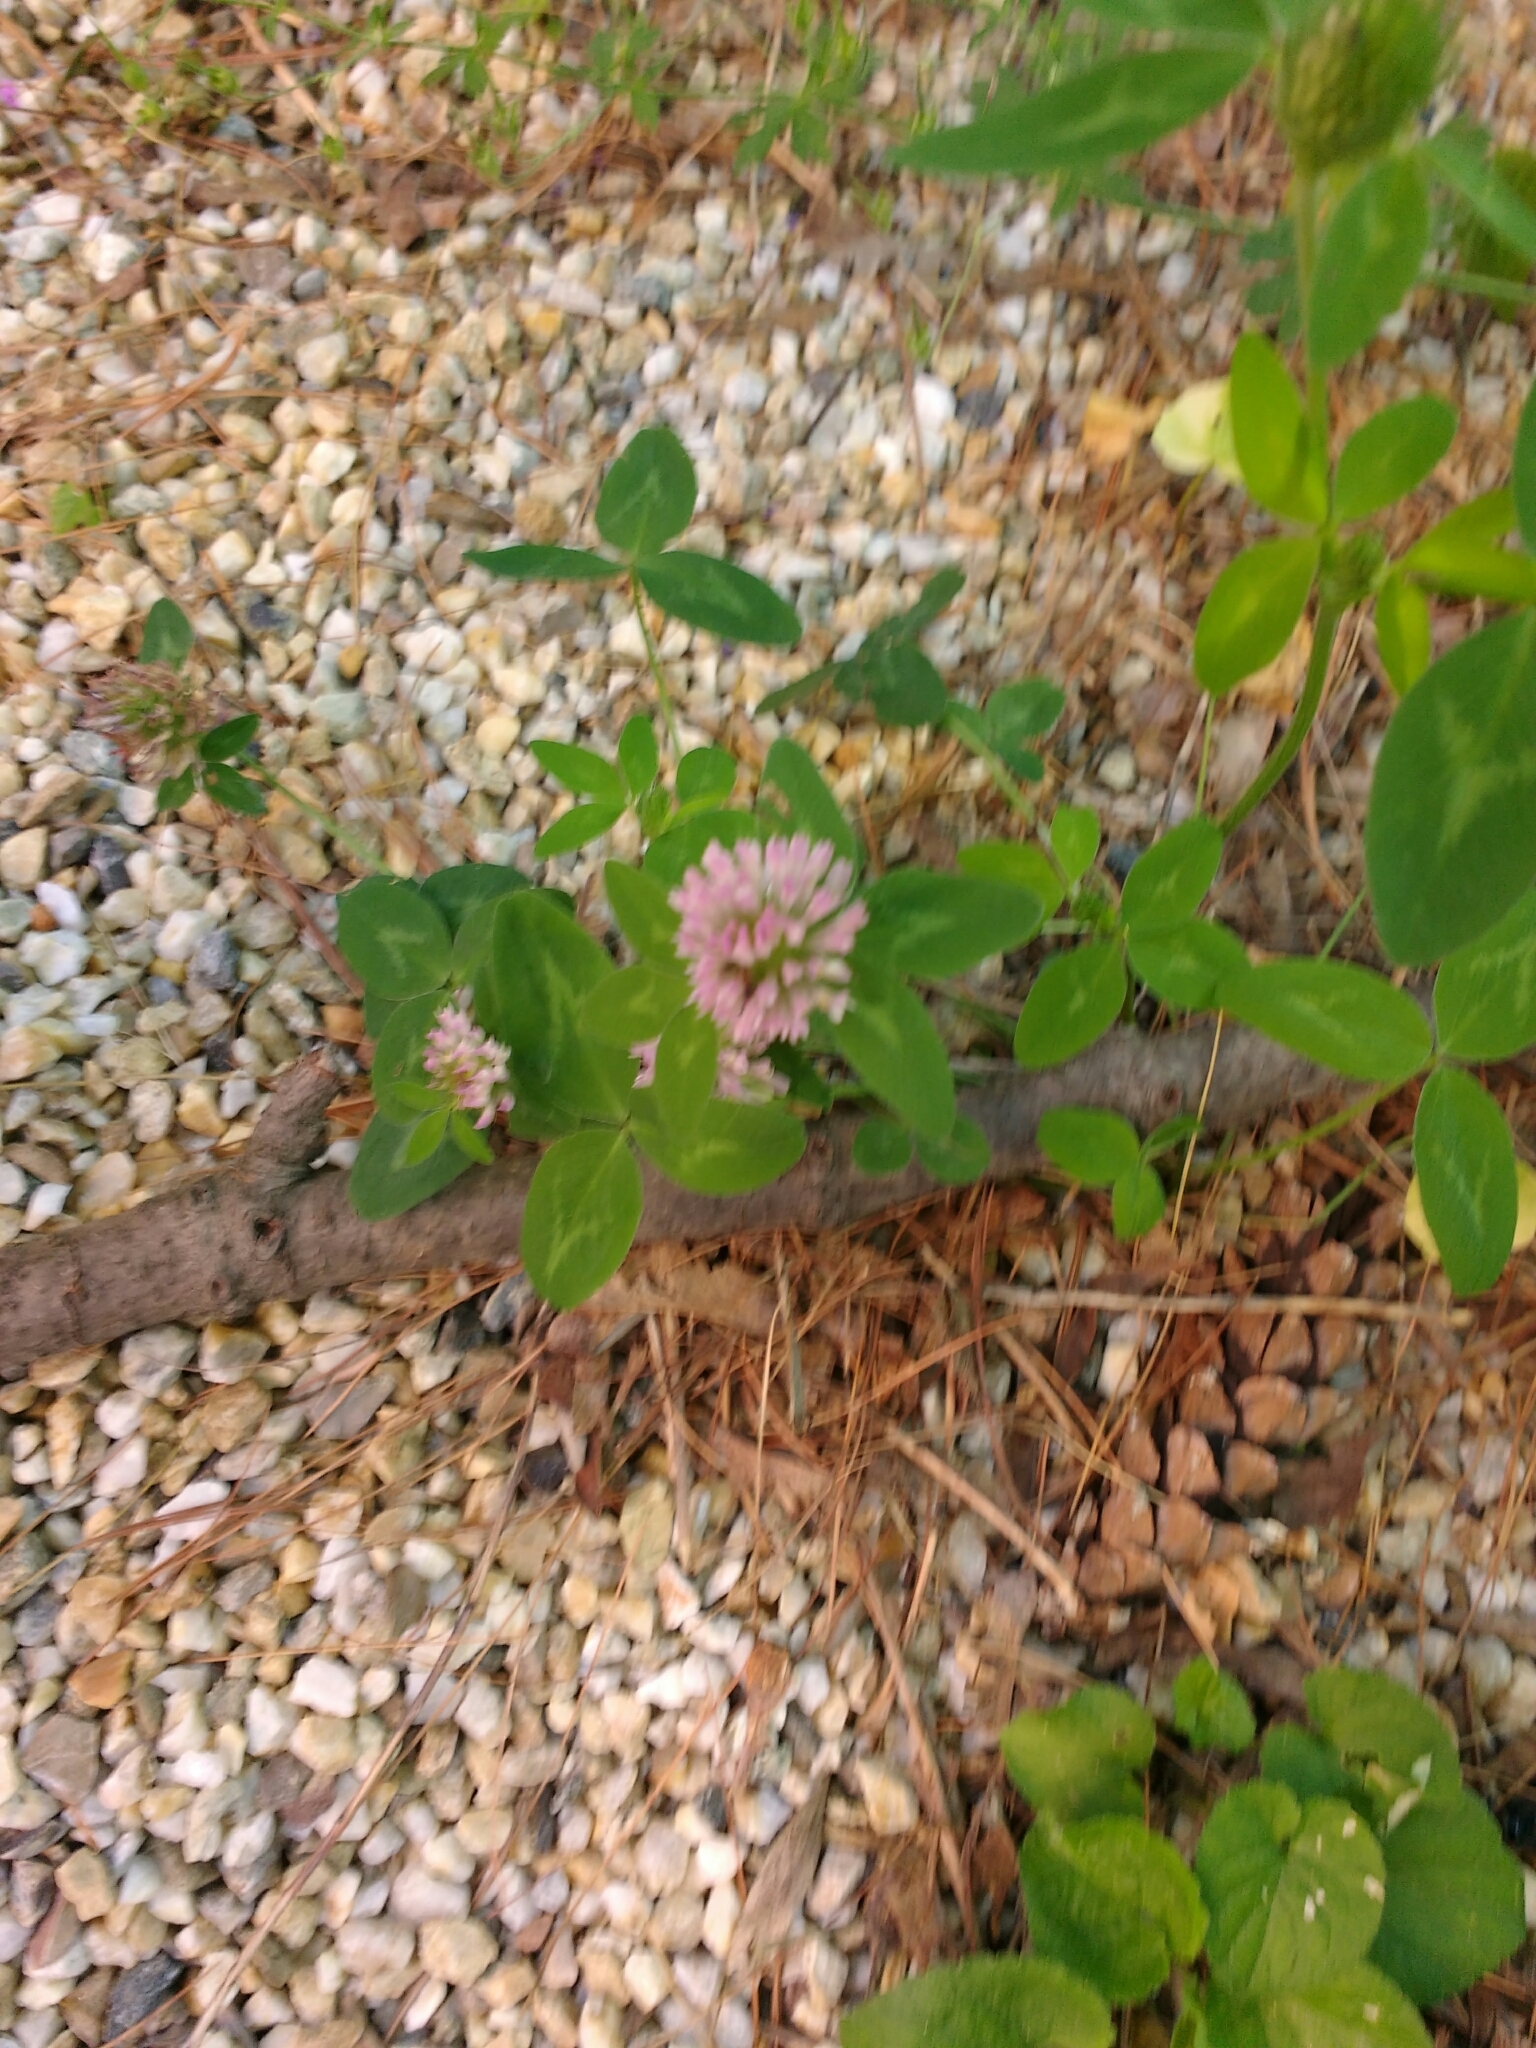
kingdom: Plantae
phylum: Tracheophyta
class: Magnoliopsida
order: Fabales
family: Fabaceae
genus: Trifolium
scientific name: Trifolium pratense
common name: Red clover
